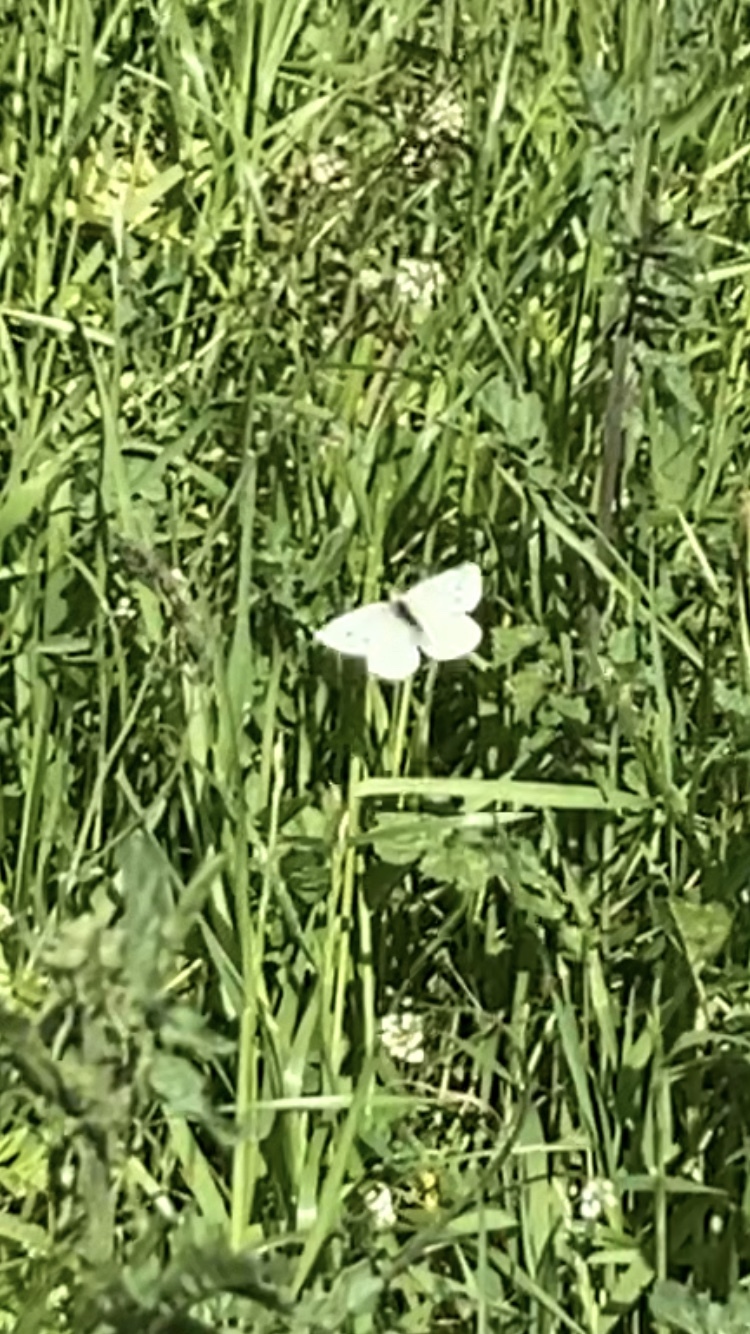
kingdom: Animalia
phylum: Arthropoda
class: Insecta
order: Lepidoptera
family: Pieridae
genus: Pieris
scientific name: Pieris rapae
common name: Small white
